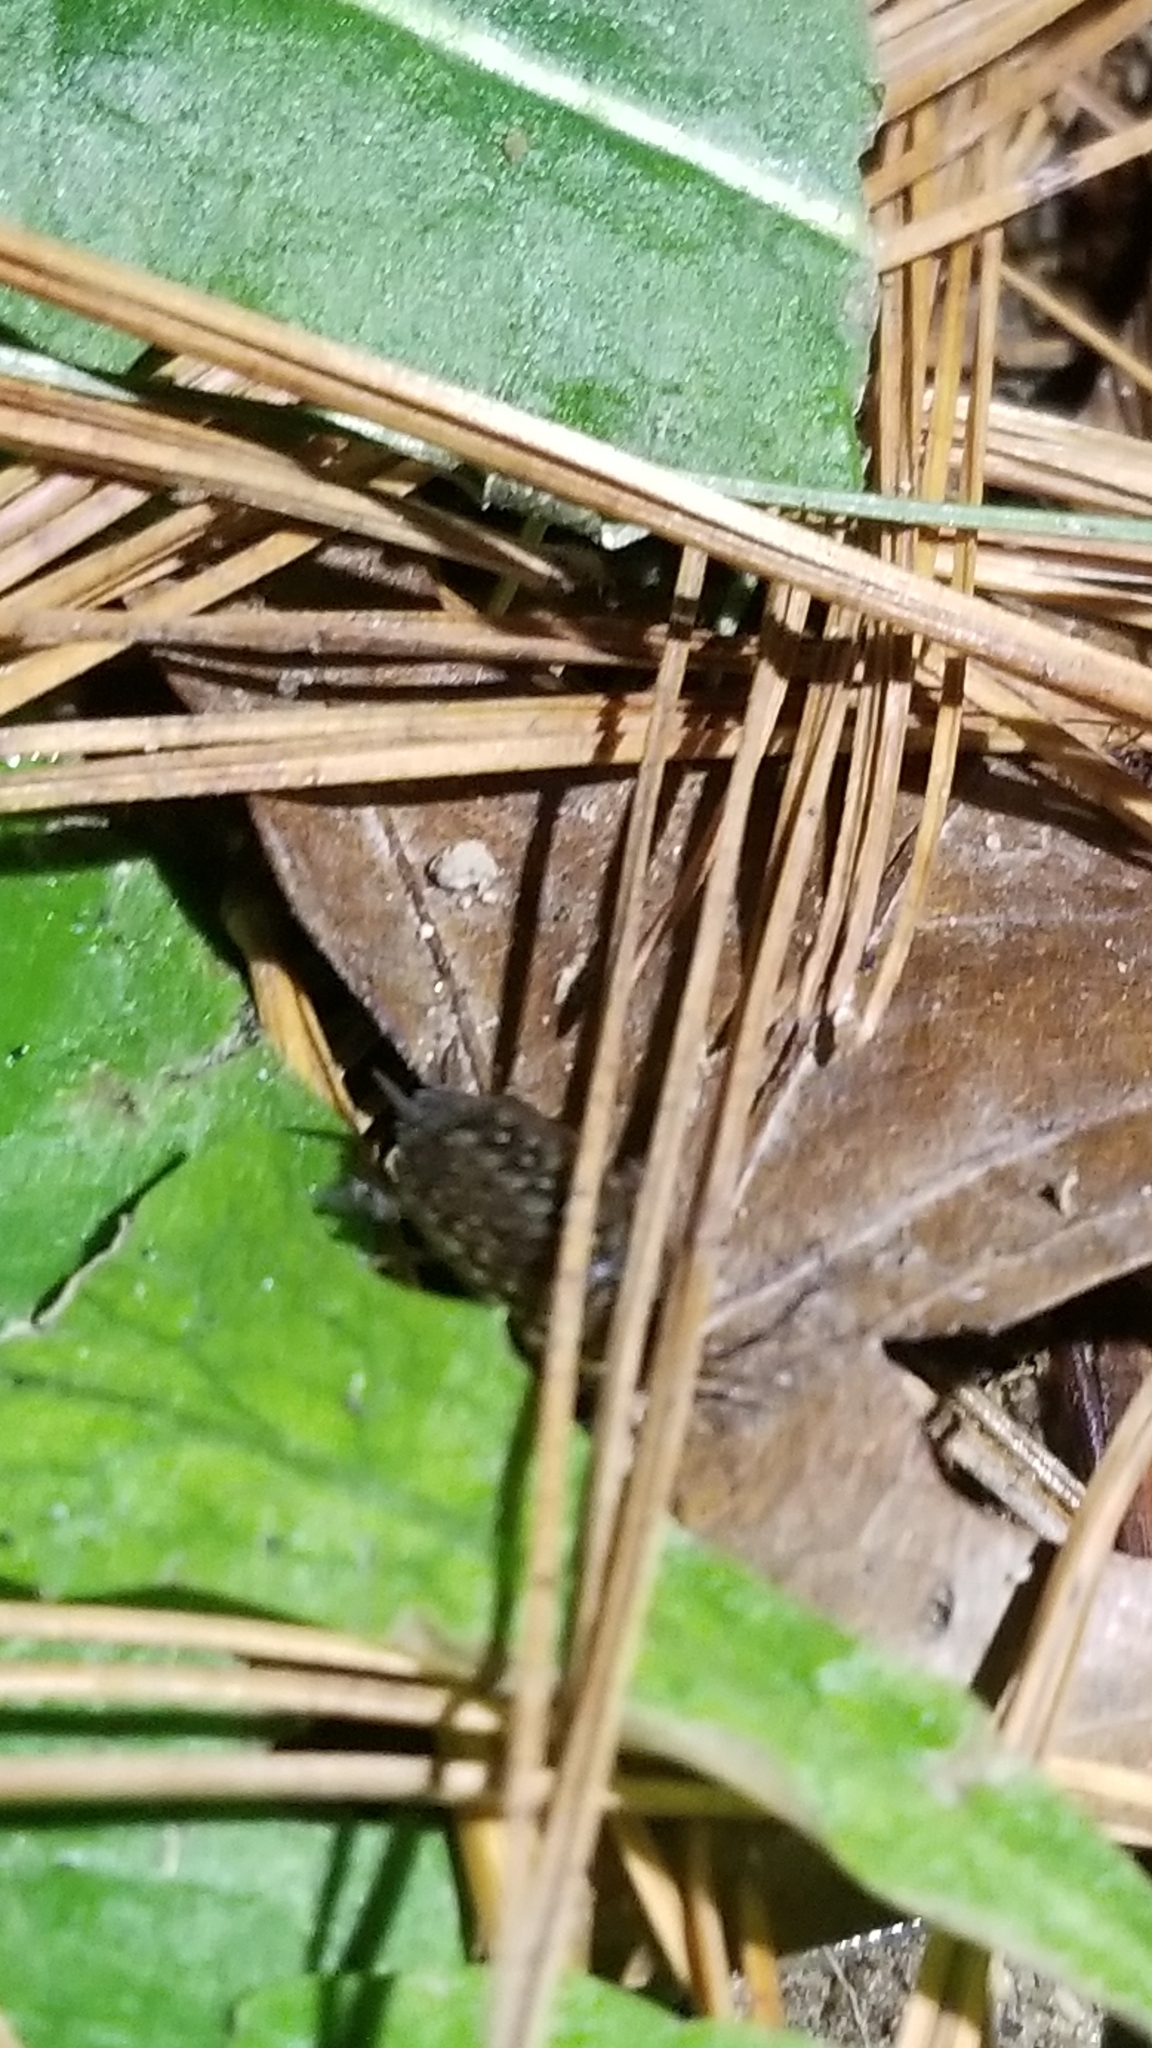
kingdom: Animalia
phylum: Arthropoda
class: Malacostraca
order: Isopoda
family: Philosciidae
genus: Philoscia
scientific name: Philoscia muscorum
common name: Common striped woodlouse
